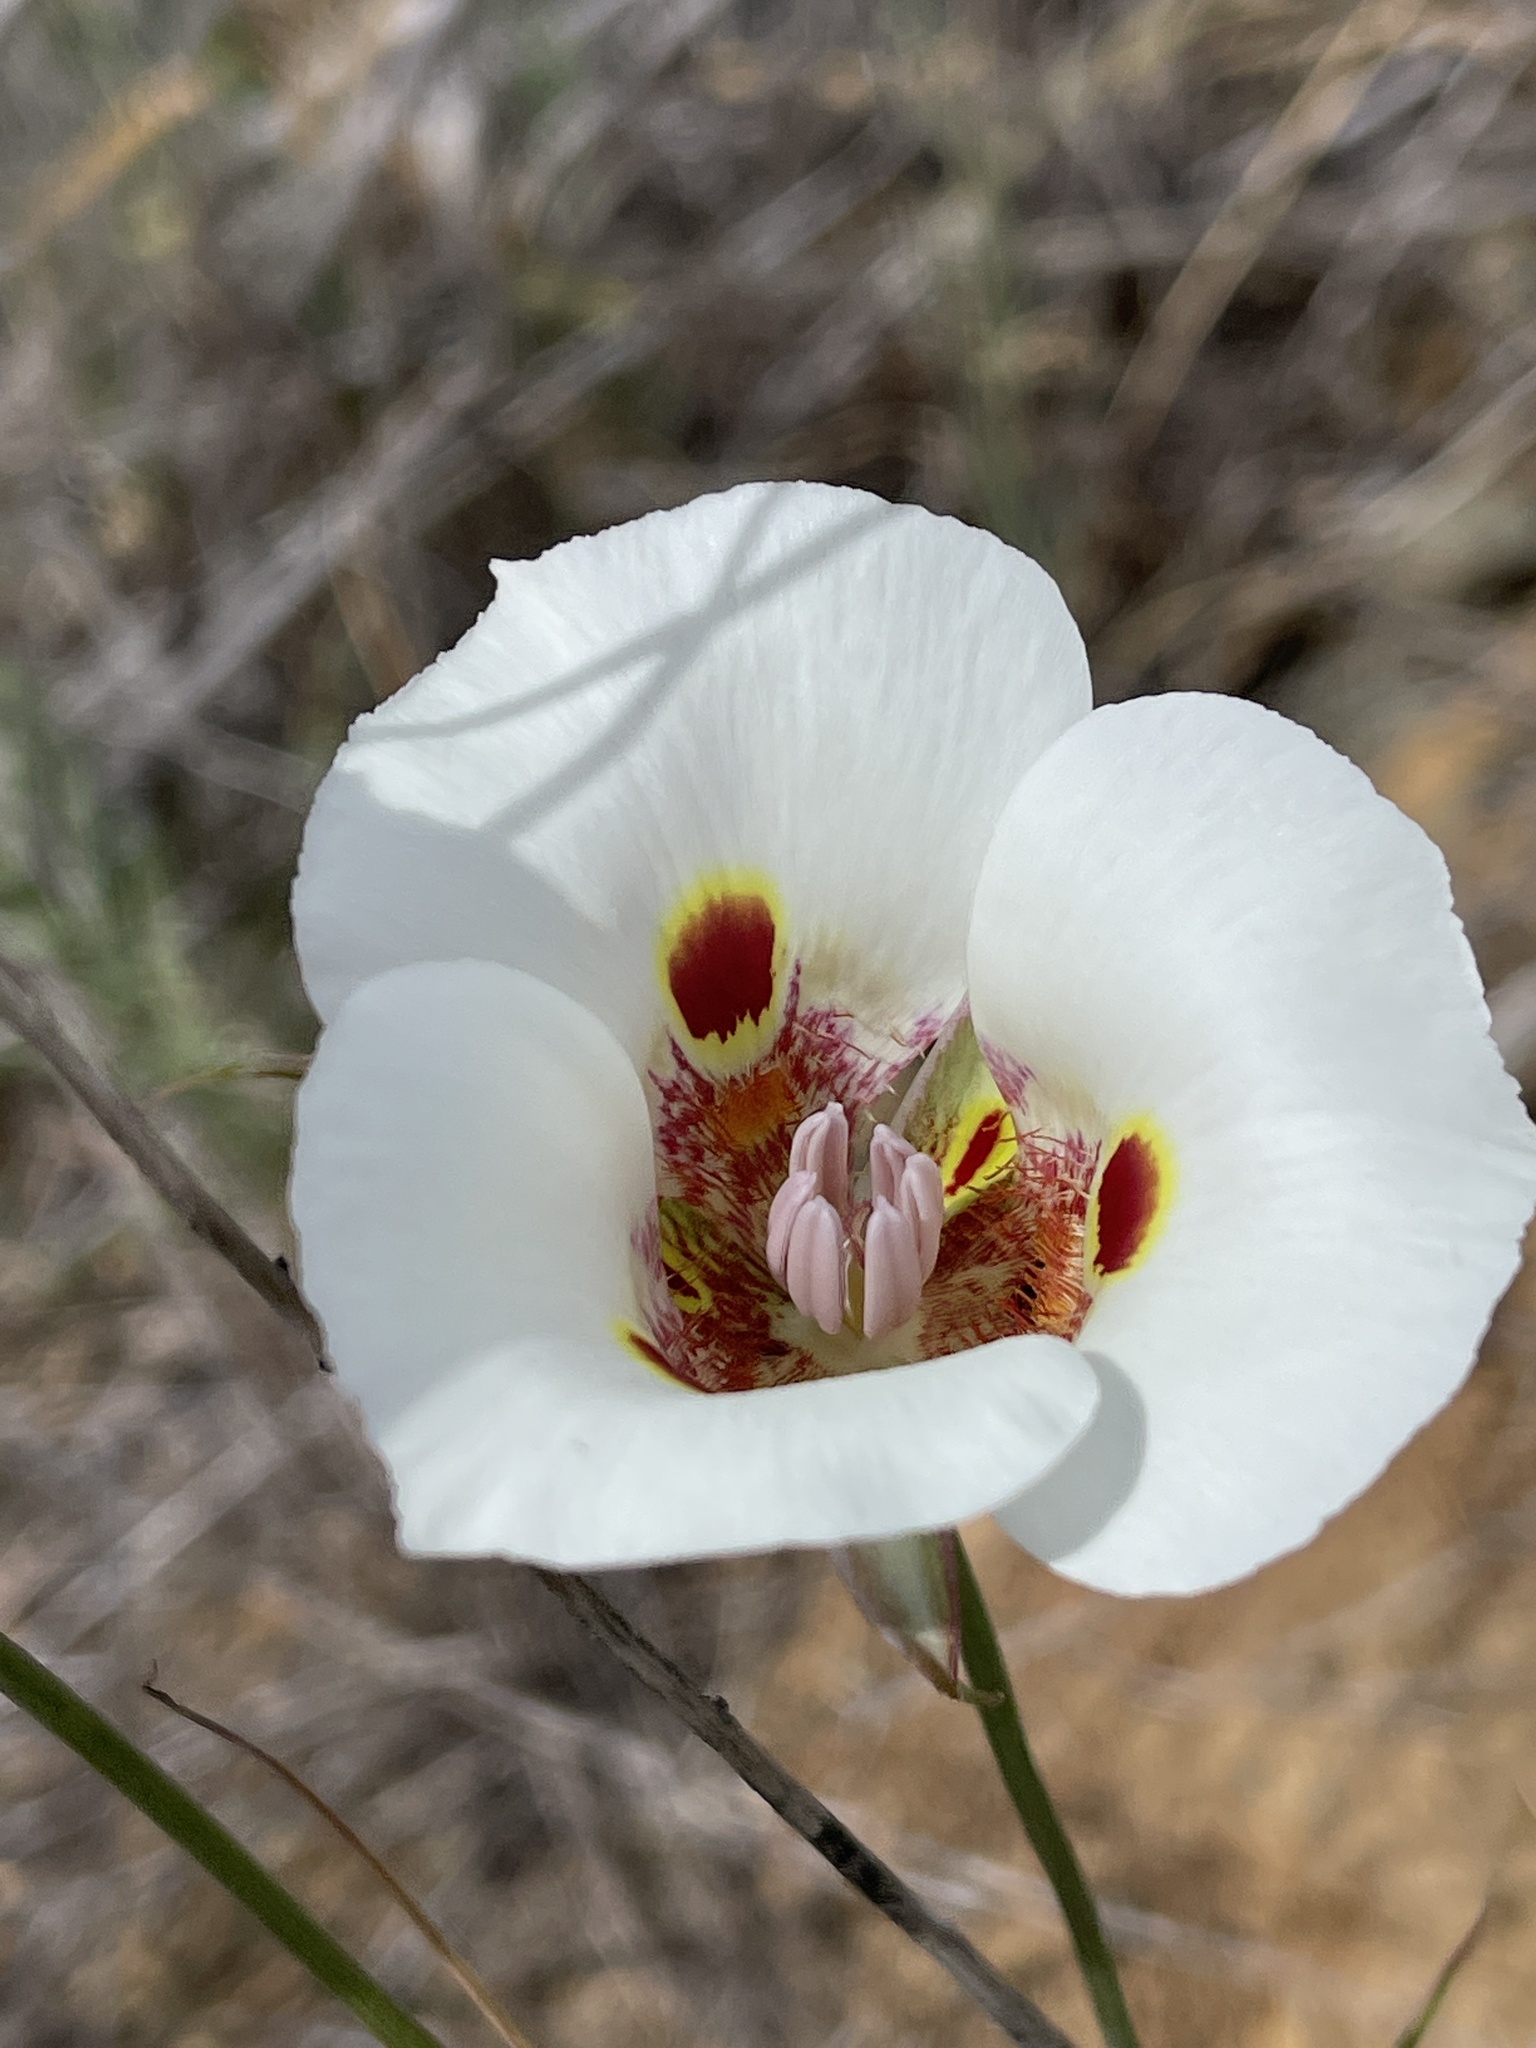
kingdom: Plantae
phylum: Tracheophyta
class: Liliopsida
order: Liliales
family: Liliaceae
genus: Calochortus
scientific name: Calochortus venustus
